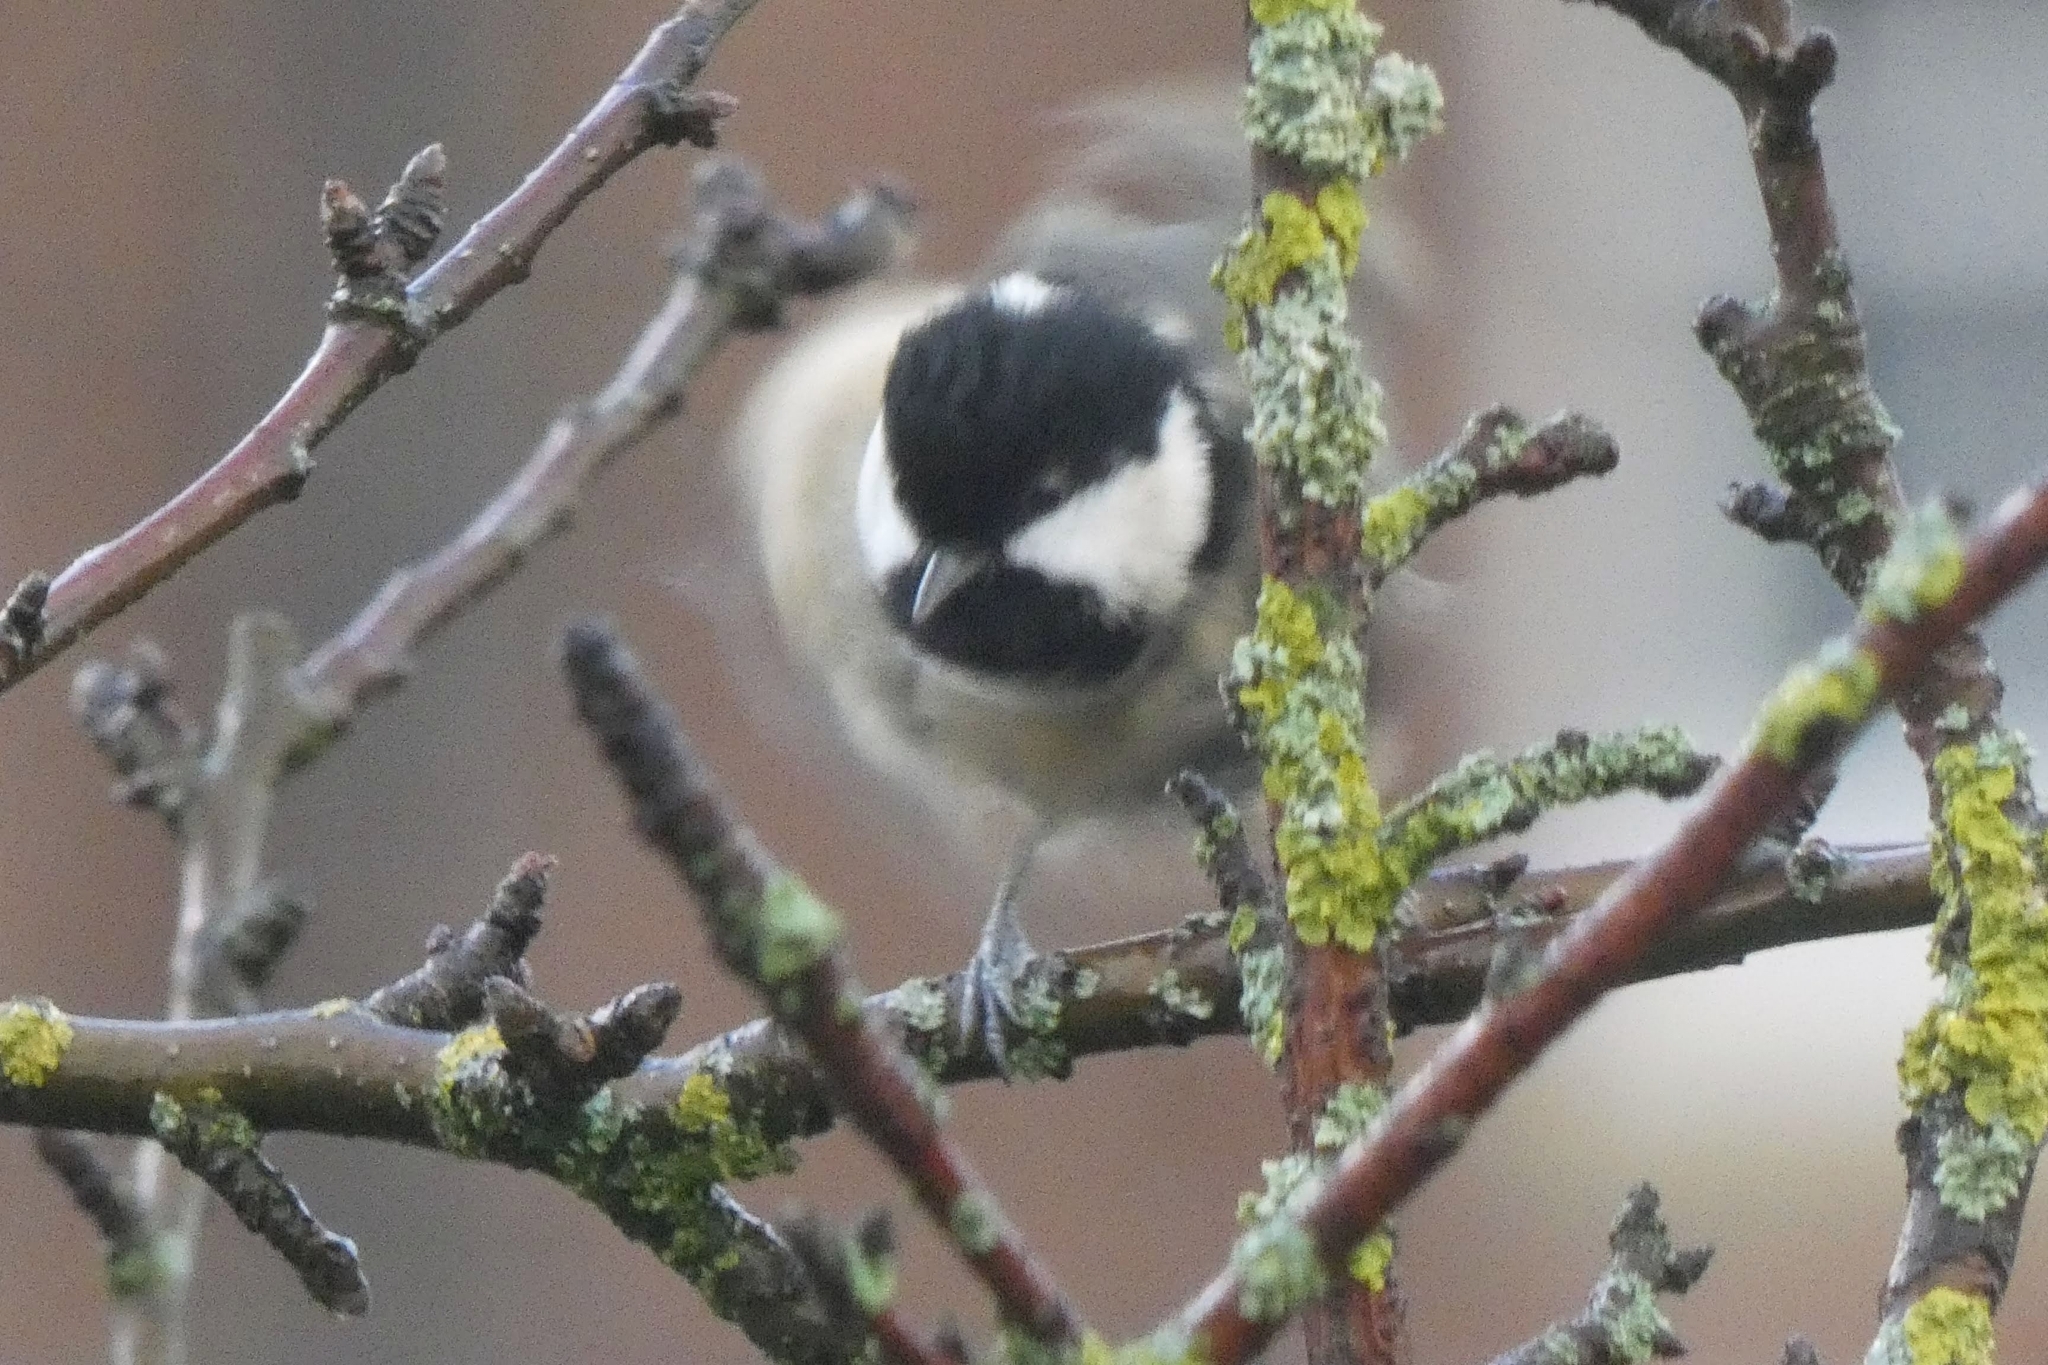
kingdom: Animalia
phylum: Chordata
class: Aves
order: Passeriformes
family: Paridae
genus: Periparus
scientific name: Periparus ater
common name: Coal tit
